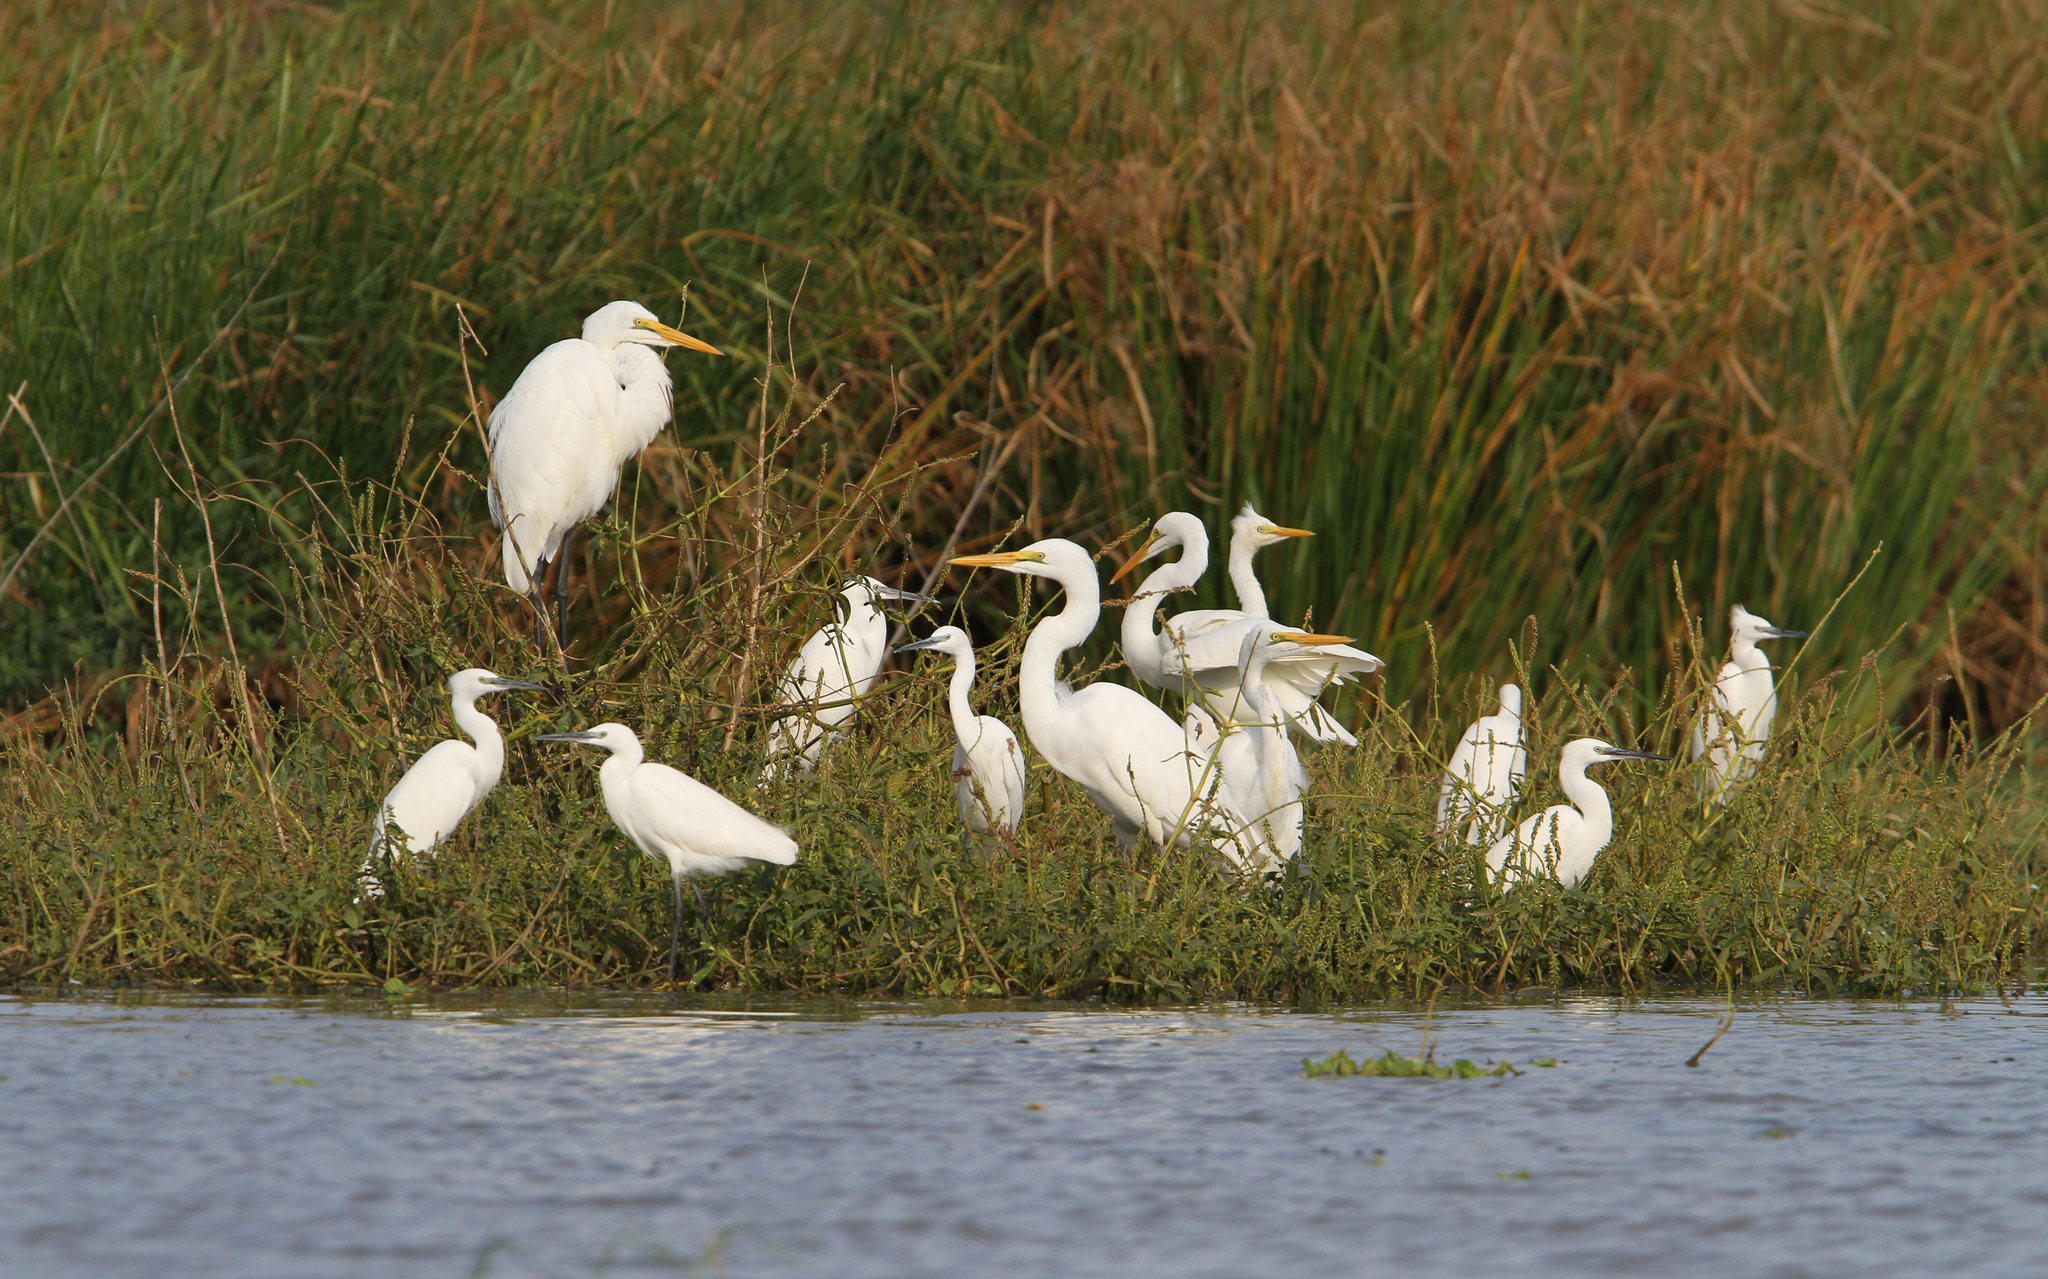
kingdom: Animalia
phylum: Chordata
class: Aves
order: Pelecaniformes
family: Ardeidae
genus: Ardea
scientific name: Ardea alba
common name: Great egret
